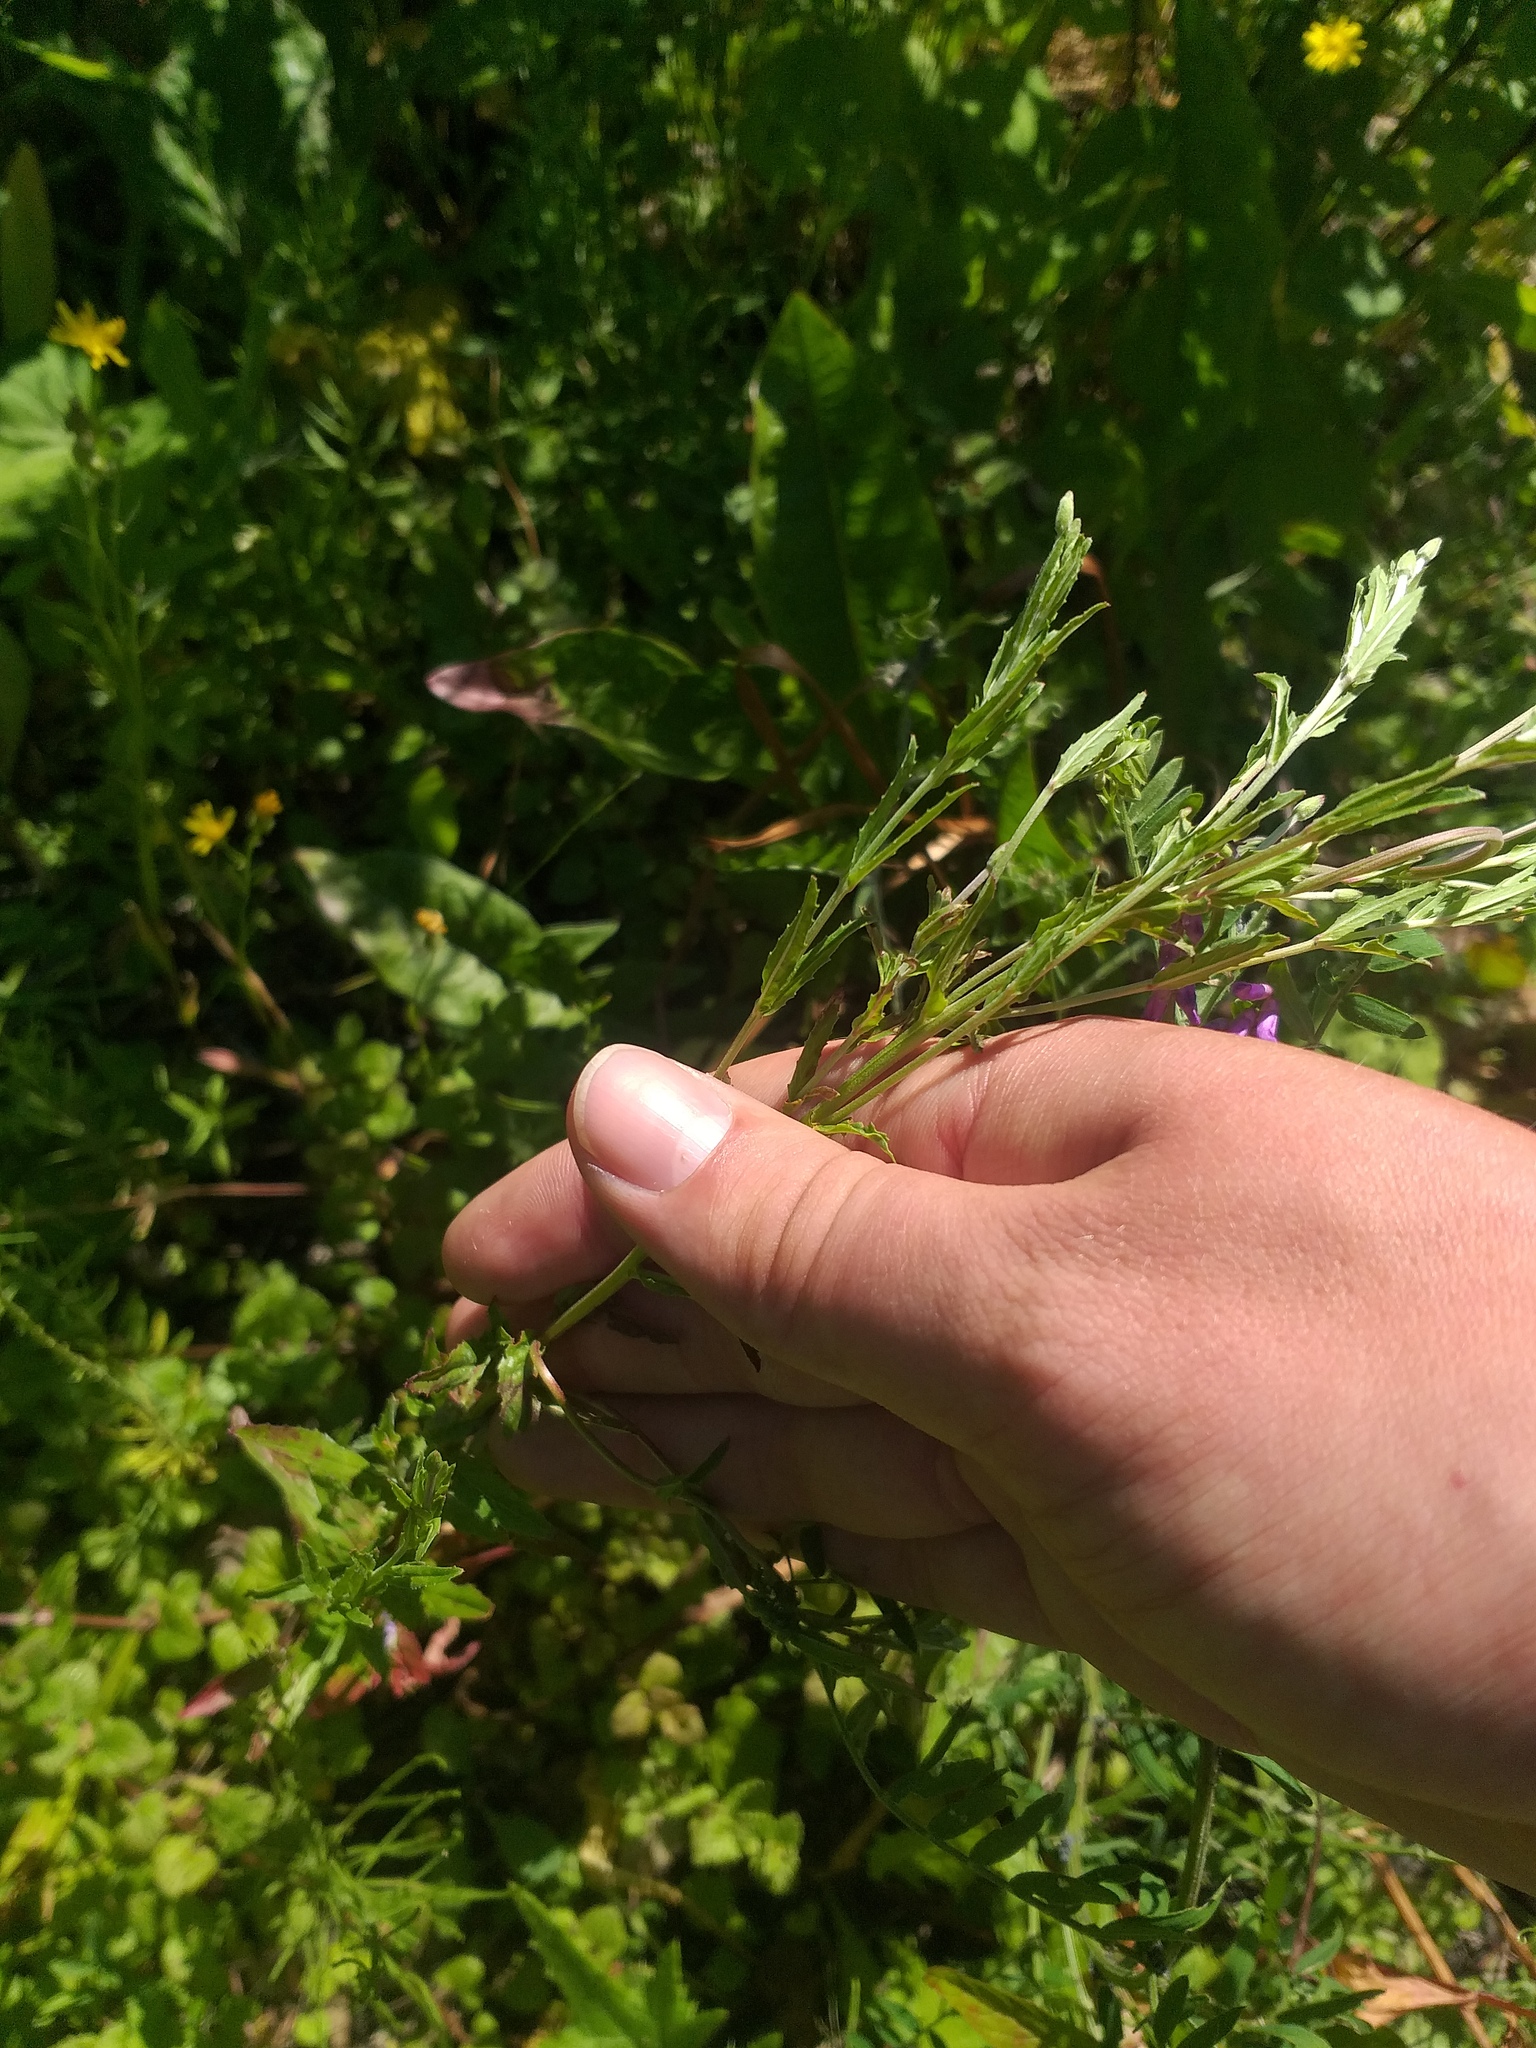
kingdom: Plantae
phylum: Tracheophyta
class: Magnoliopsida
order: Myrtales
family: Onagraceae
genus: Epilobium
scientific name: Epilobium tetragonum
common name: Square-stemmed willowherb
